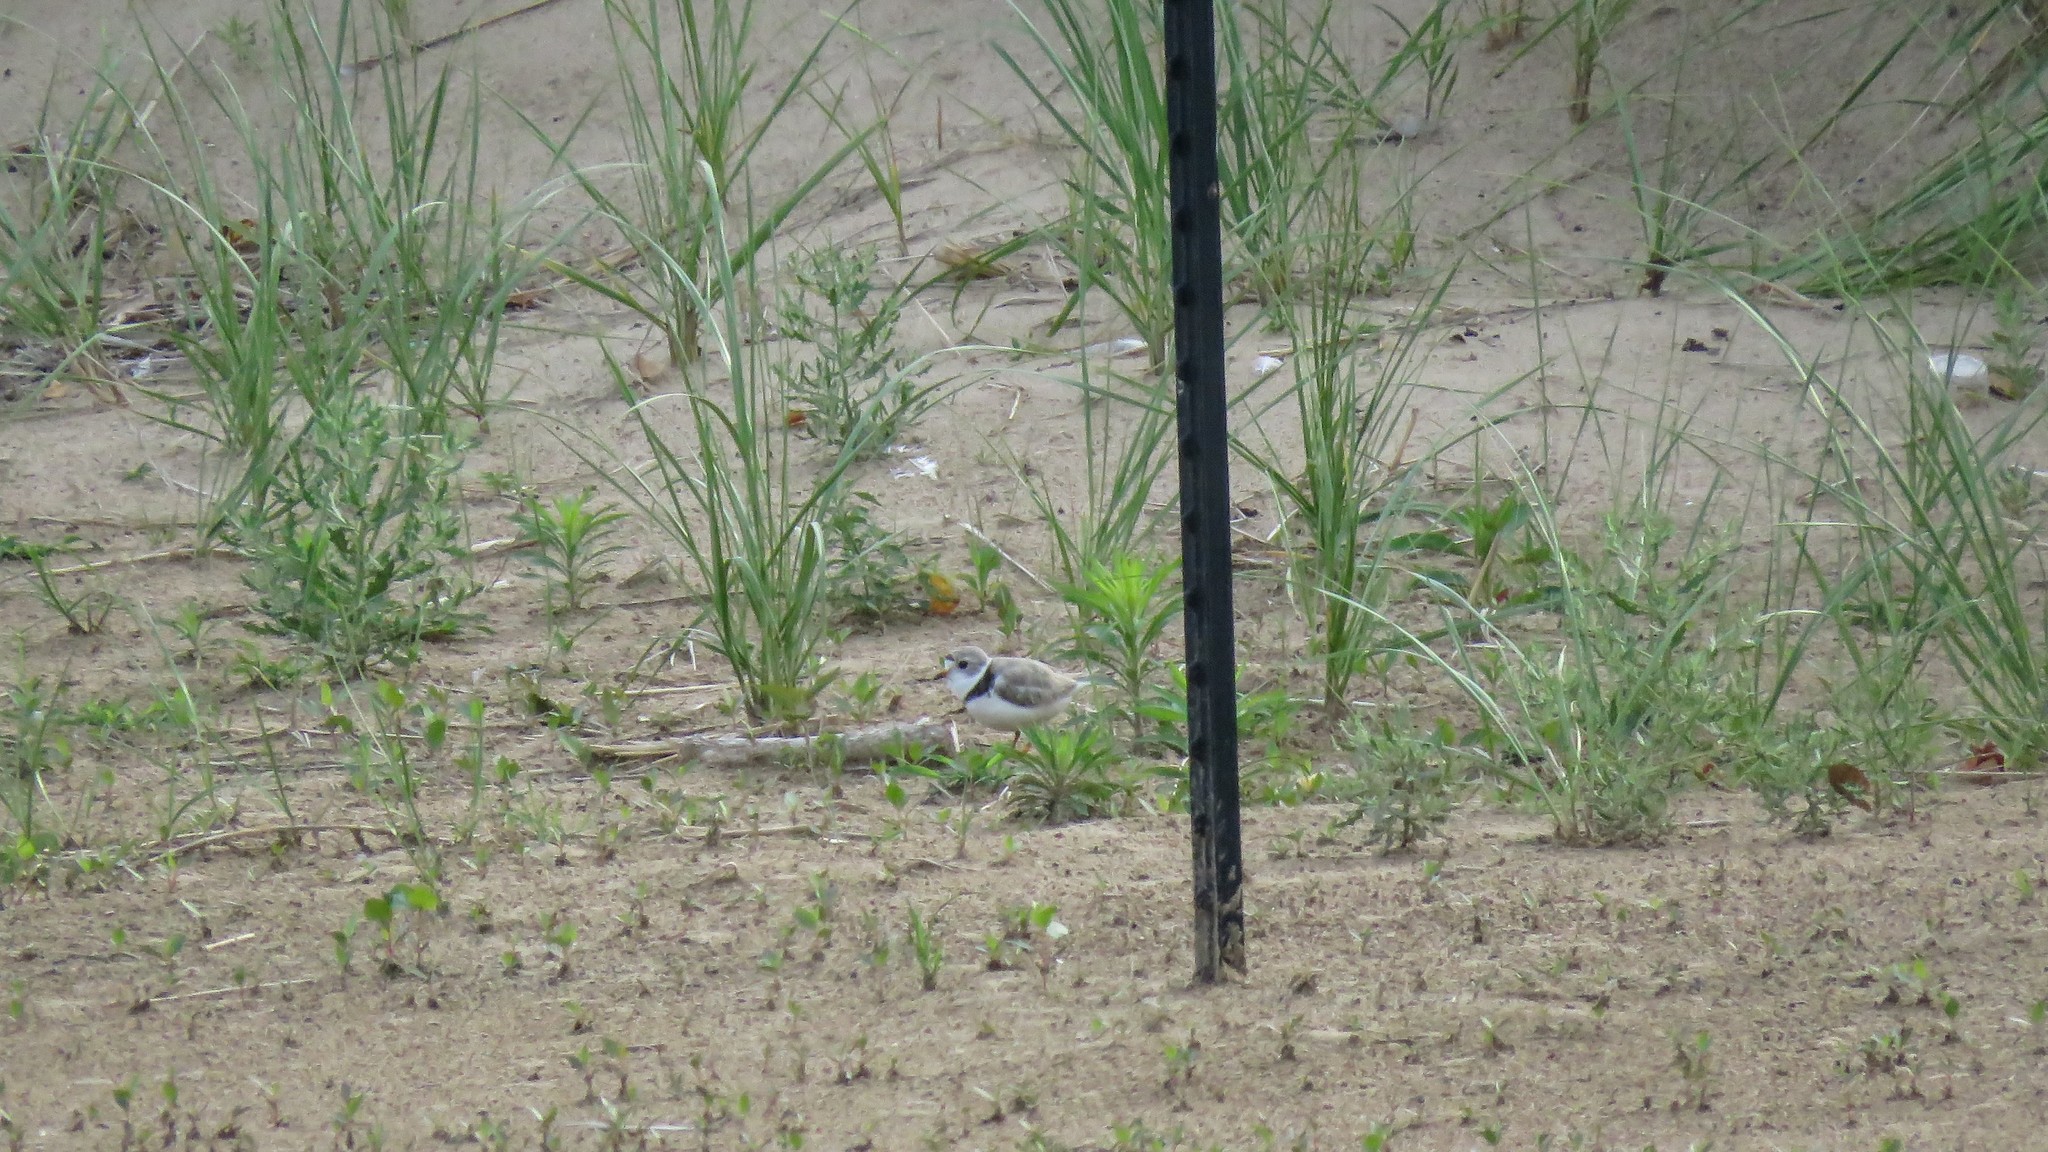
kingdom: Animalia
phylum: Chordata
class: Aves
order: Charadriiformes
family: Charadriidae
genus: Charadrius
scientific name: Charadrius melodus
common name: Piping plover
